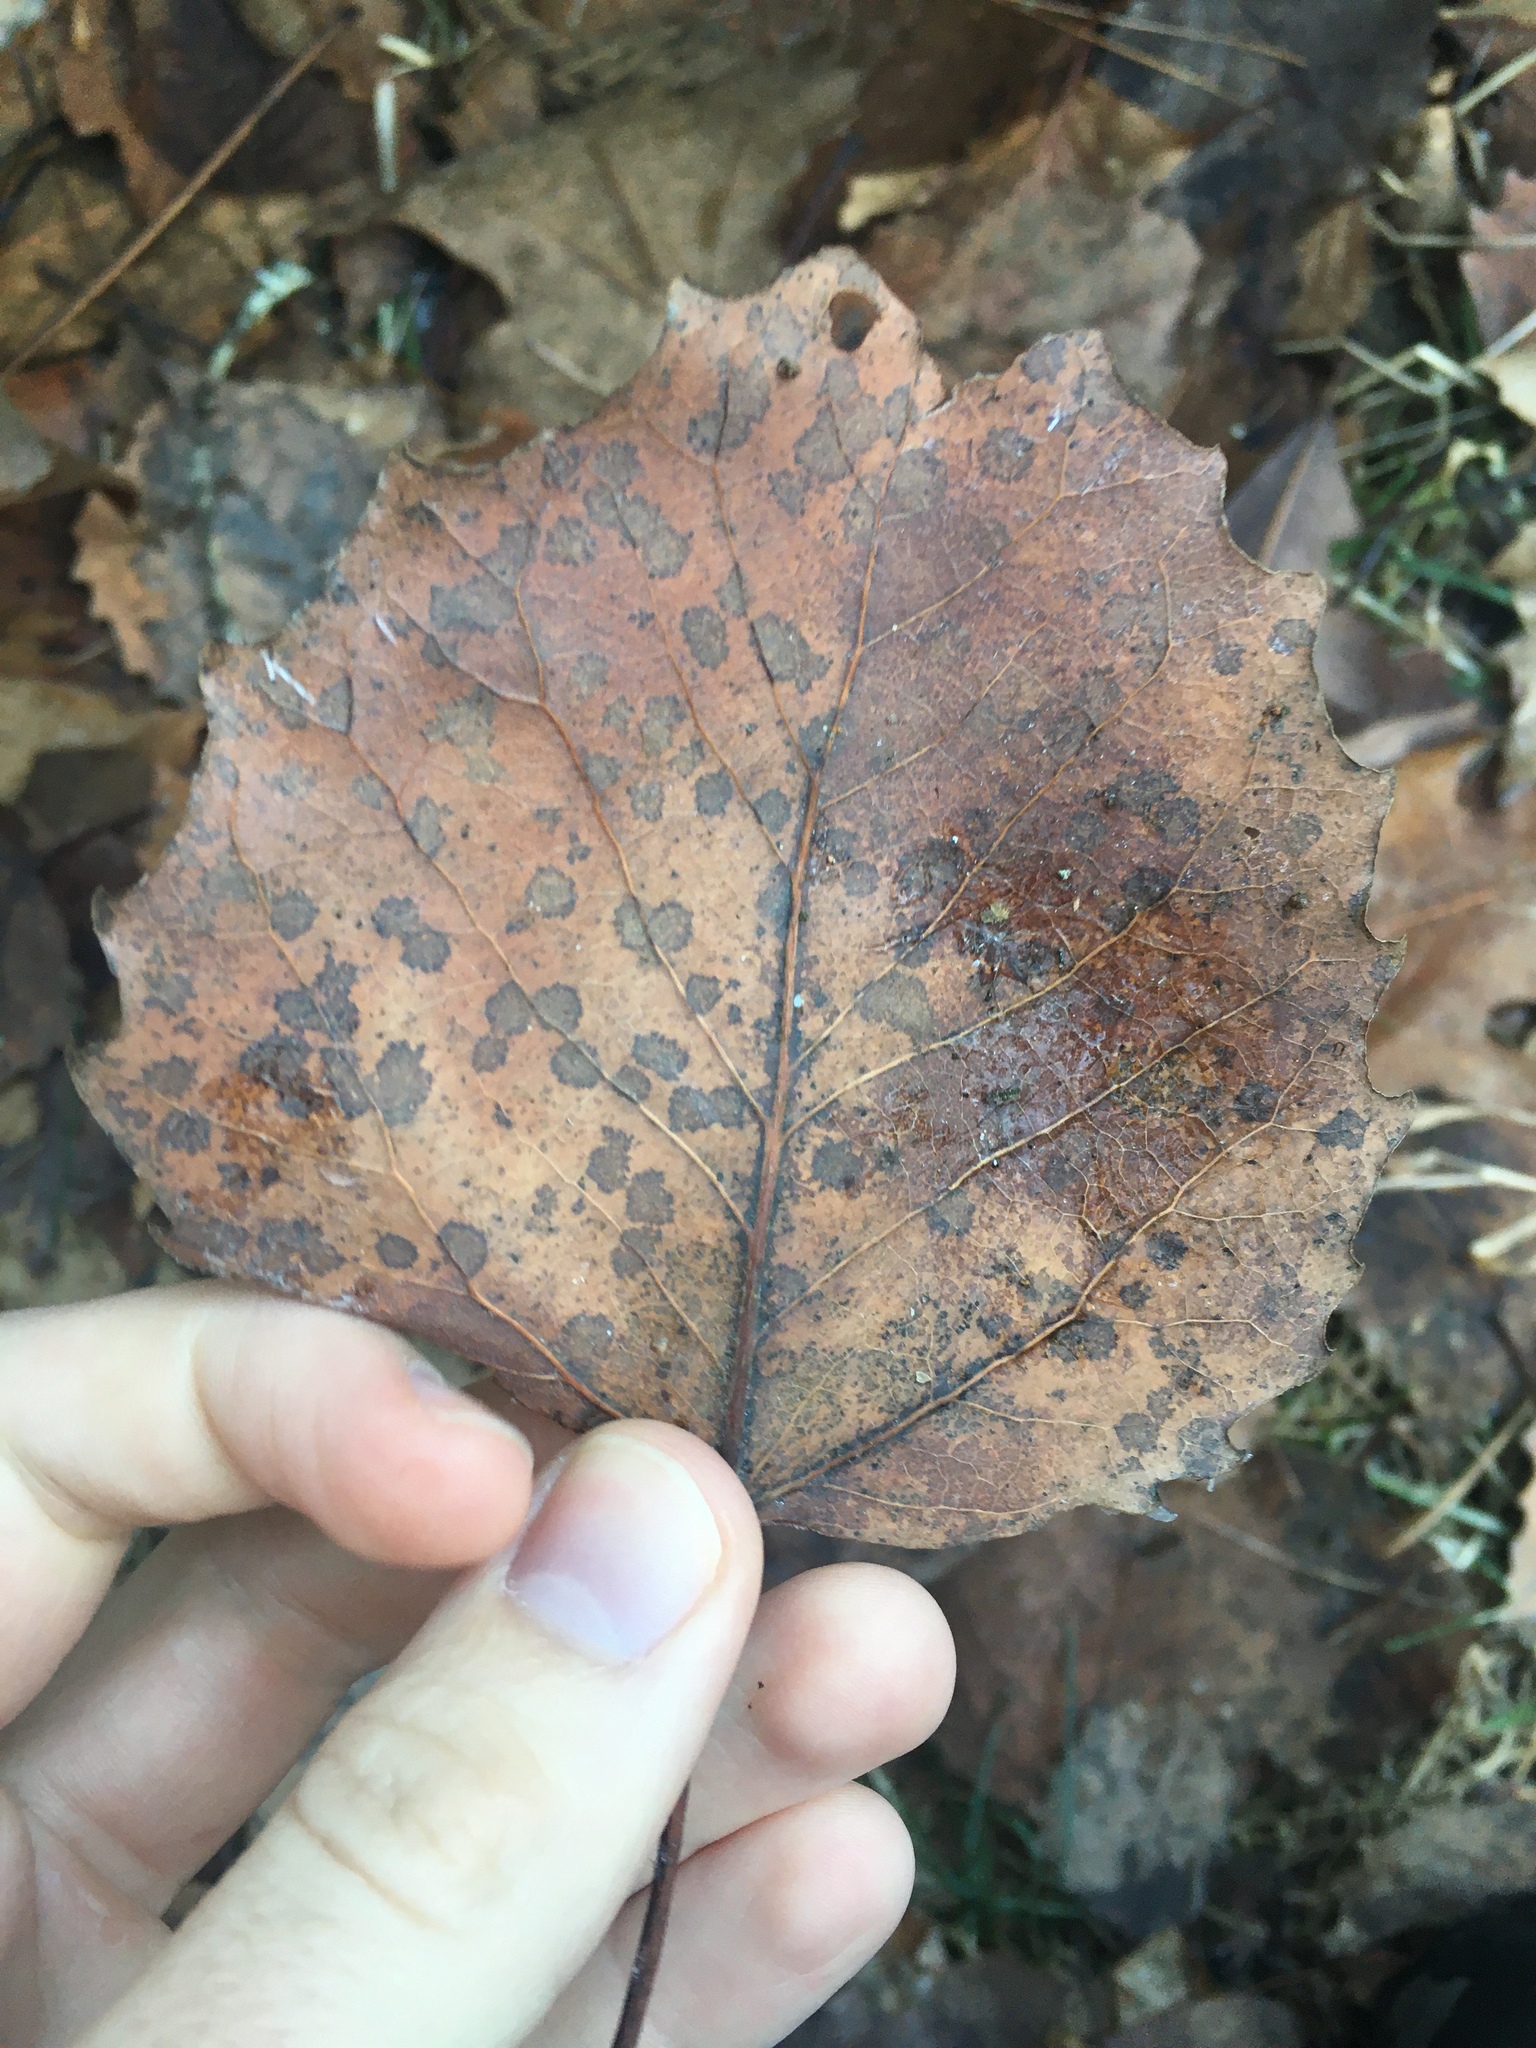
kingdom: Plantae
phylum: Tracheophyta
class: Magnoliopsida
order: Malpighiales
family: Salicaceae
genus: Populus
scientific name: Populus grandidentata
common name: Bigtooth aspen
